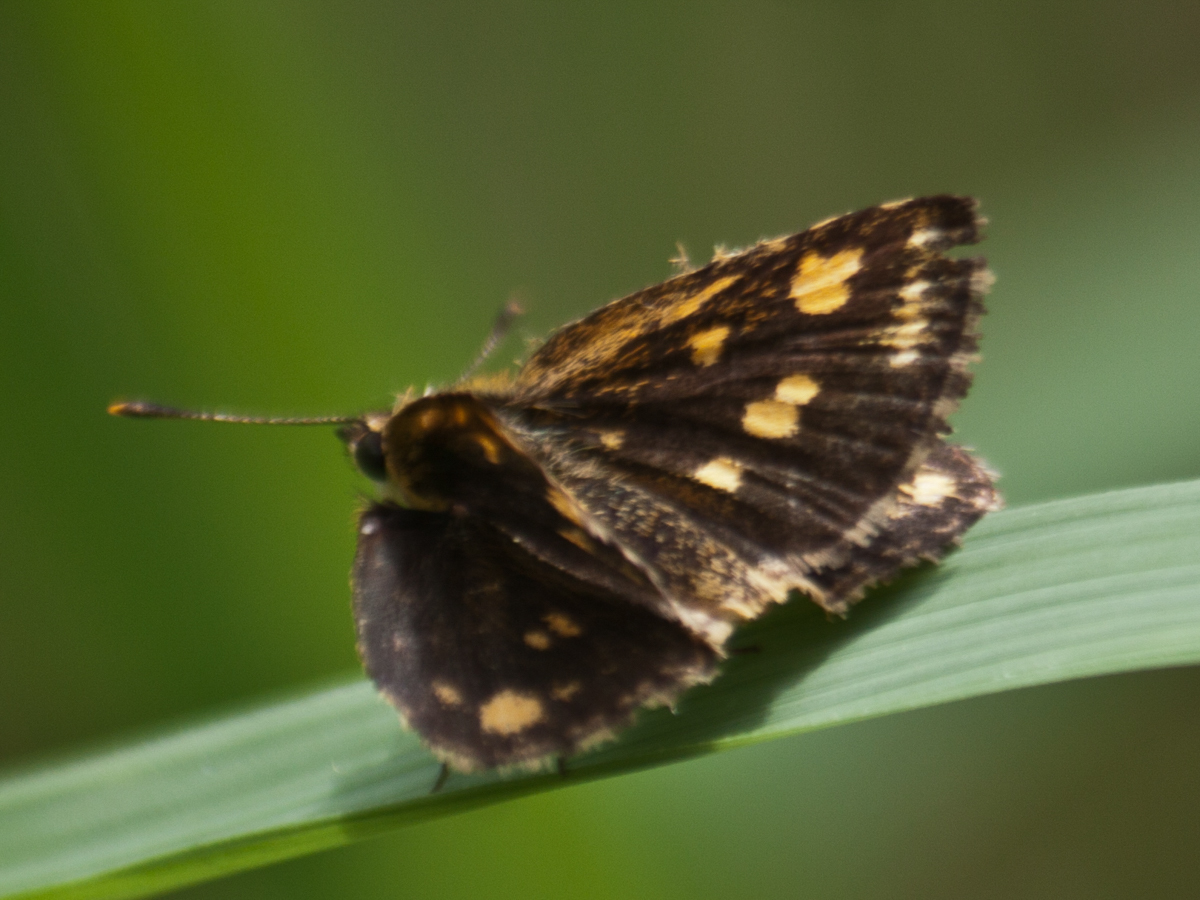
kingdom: Animalia
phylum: Arthropoda
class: Insecta
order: Lepidoptera
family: Hesperiidae
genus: Ampittia
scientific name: Ampittia dioscorides
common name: Common bush hopper
